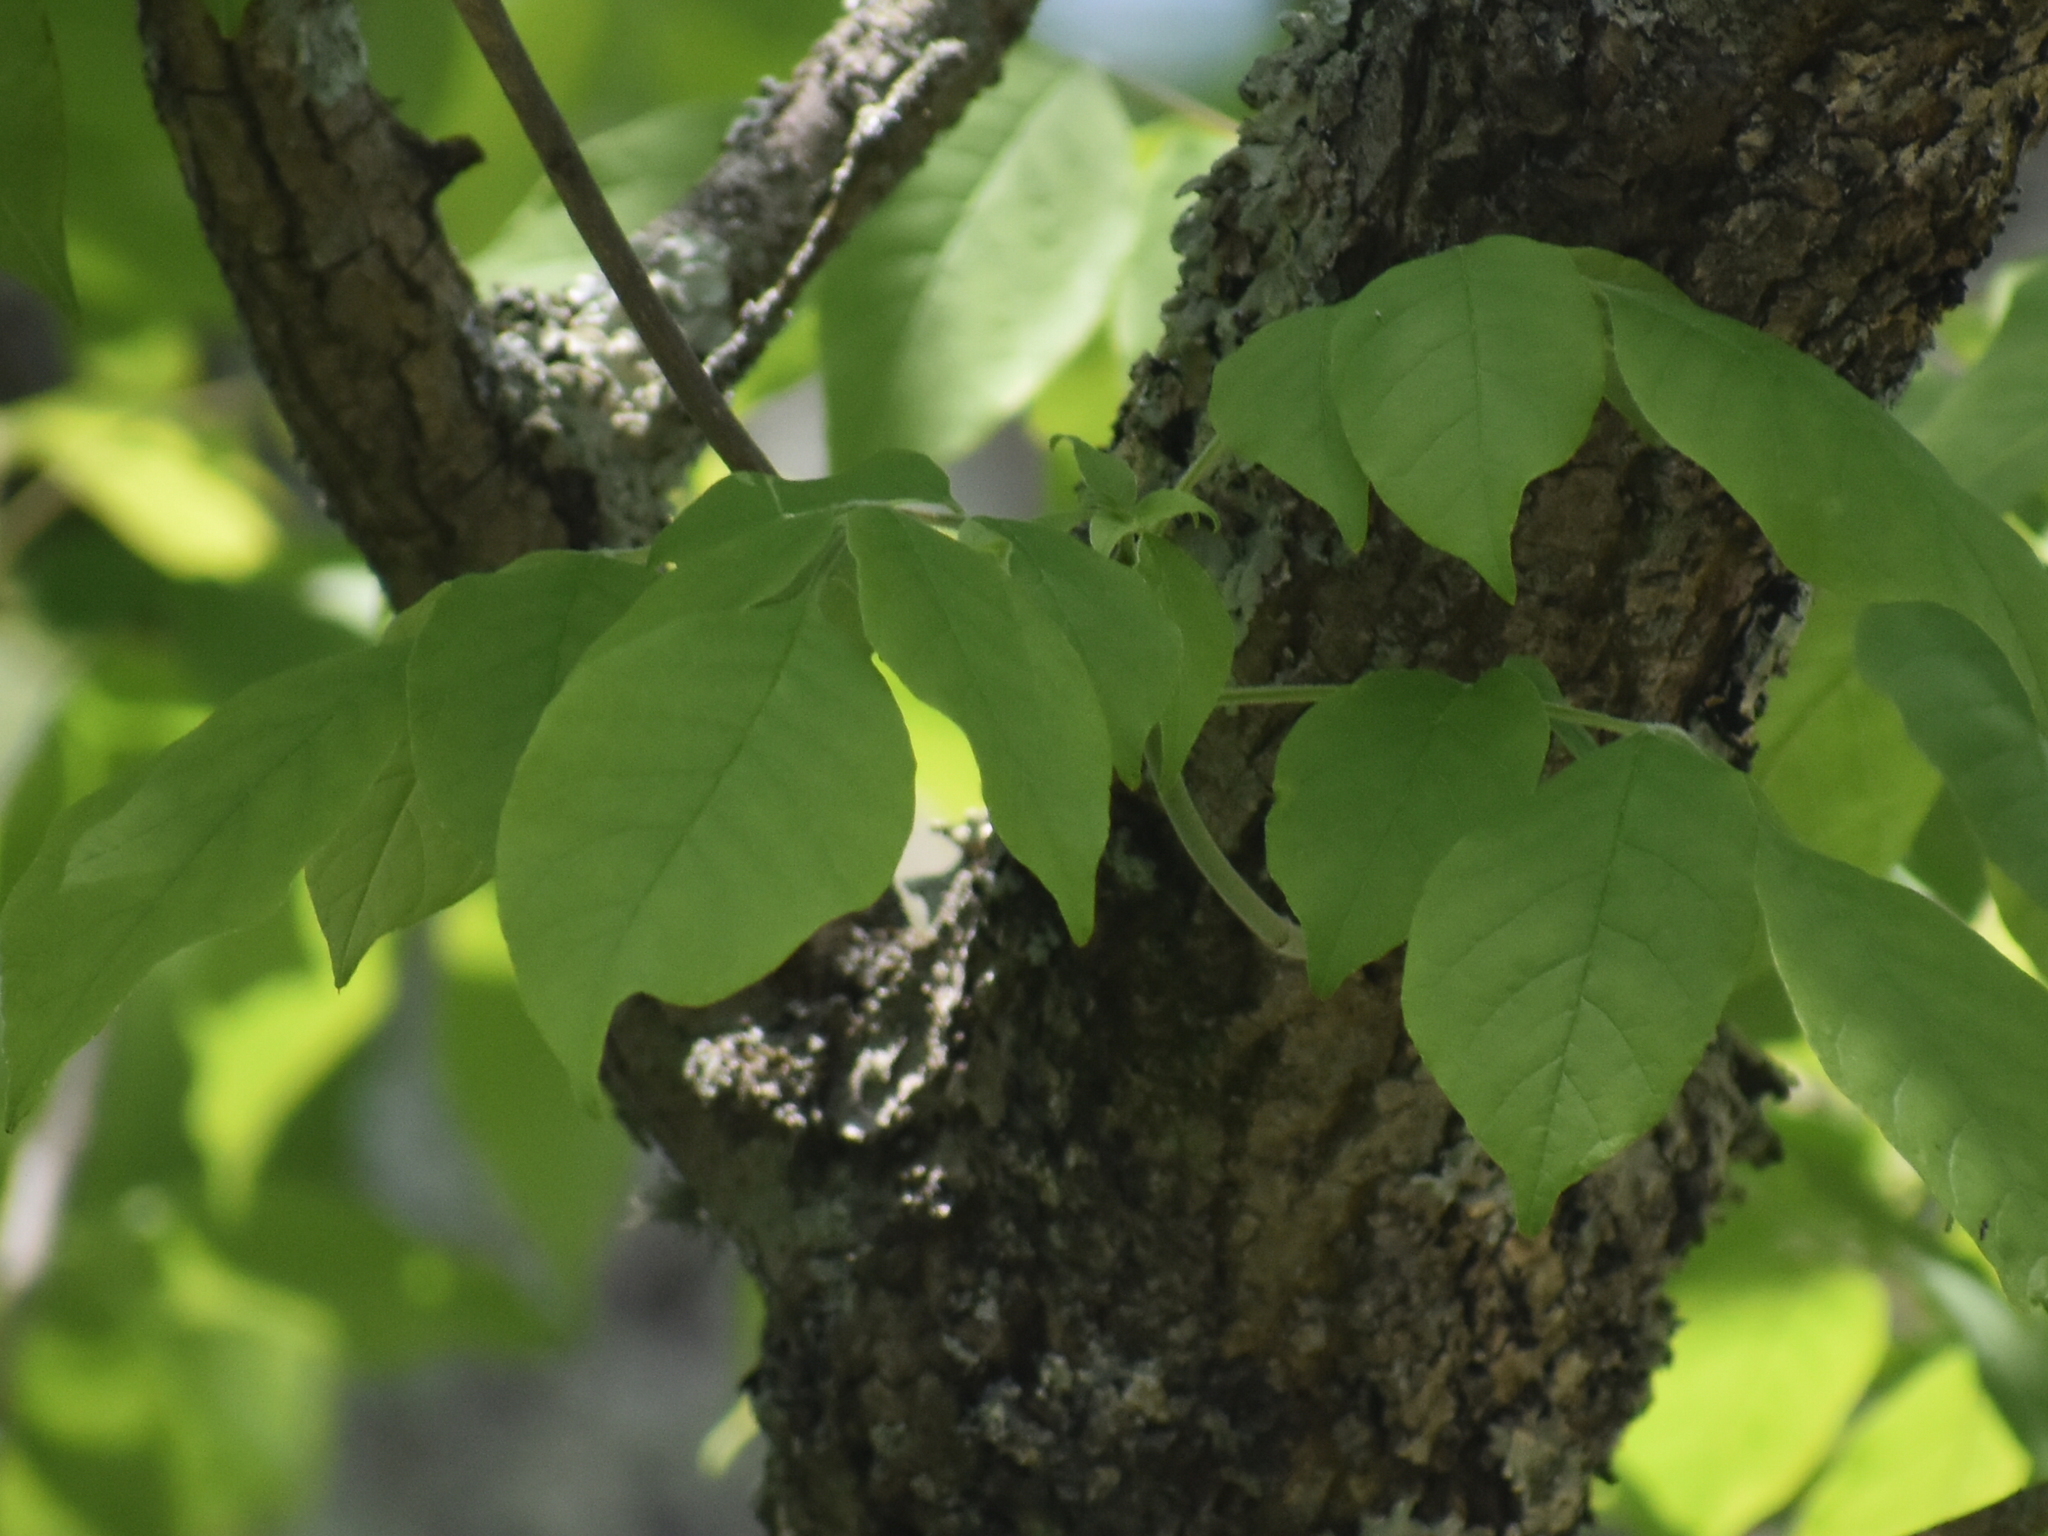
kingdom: Plantae
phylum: Tracheophyta
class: Magnoliopsida
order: Lamiales
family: Oleaceae
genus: Fraxinus
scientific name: Fraxinus americana
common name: White ash
